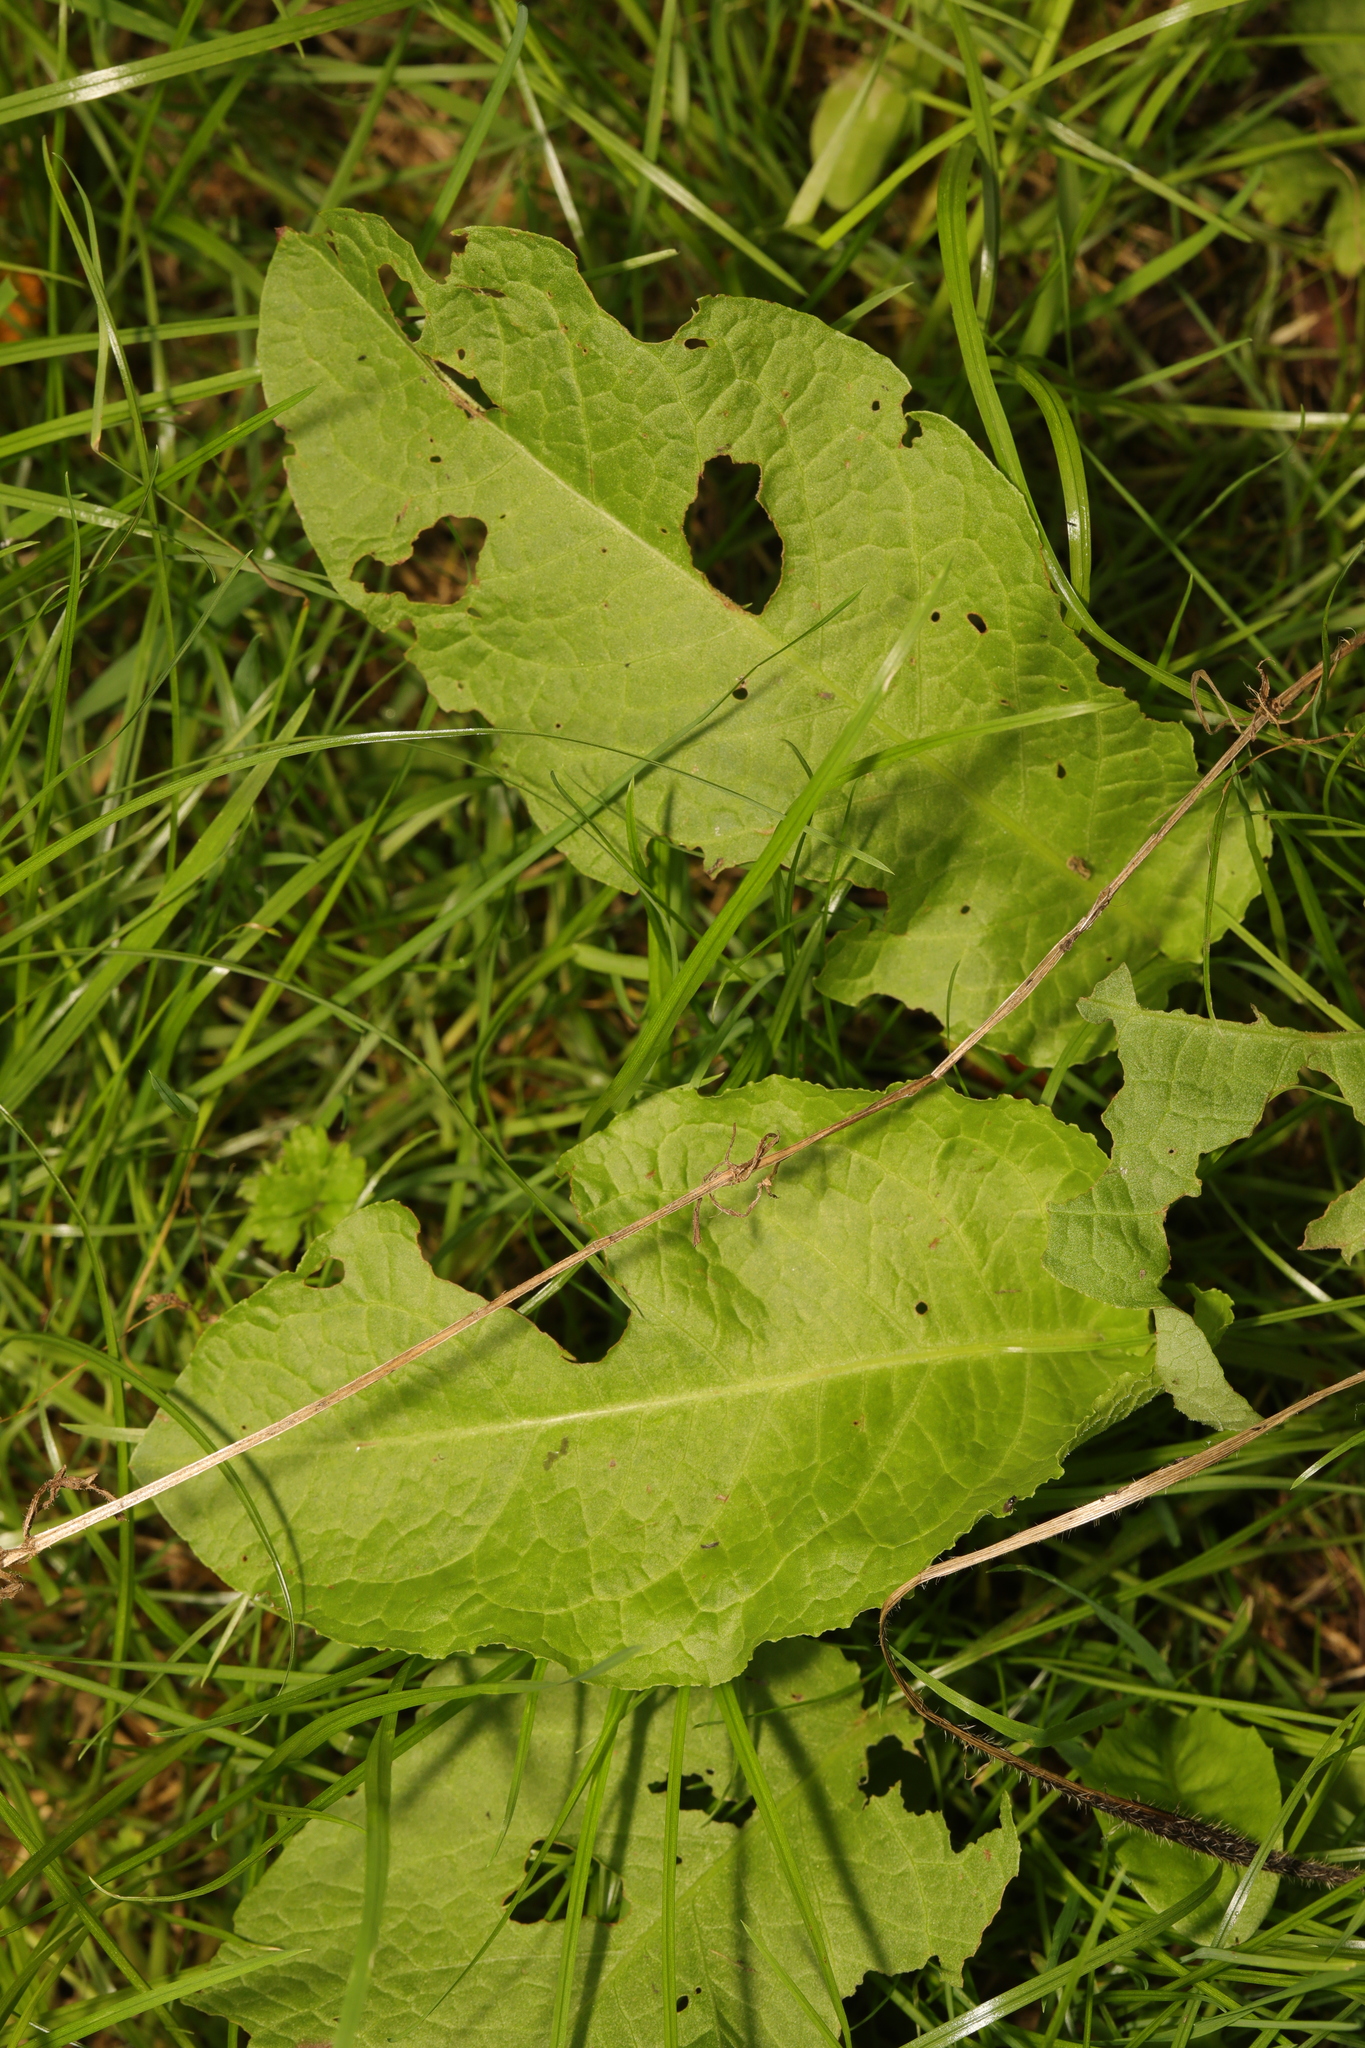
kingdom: Plantae
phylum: Tracheophyta
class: Magnoliopsida
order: Caryophyllales
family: Polygonaceae
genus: Rumex
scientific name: Rumex obtusifolius
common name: Bitter dock
